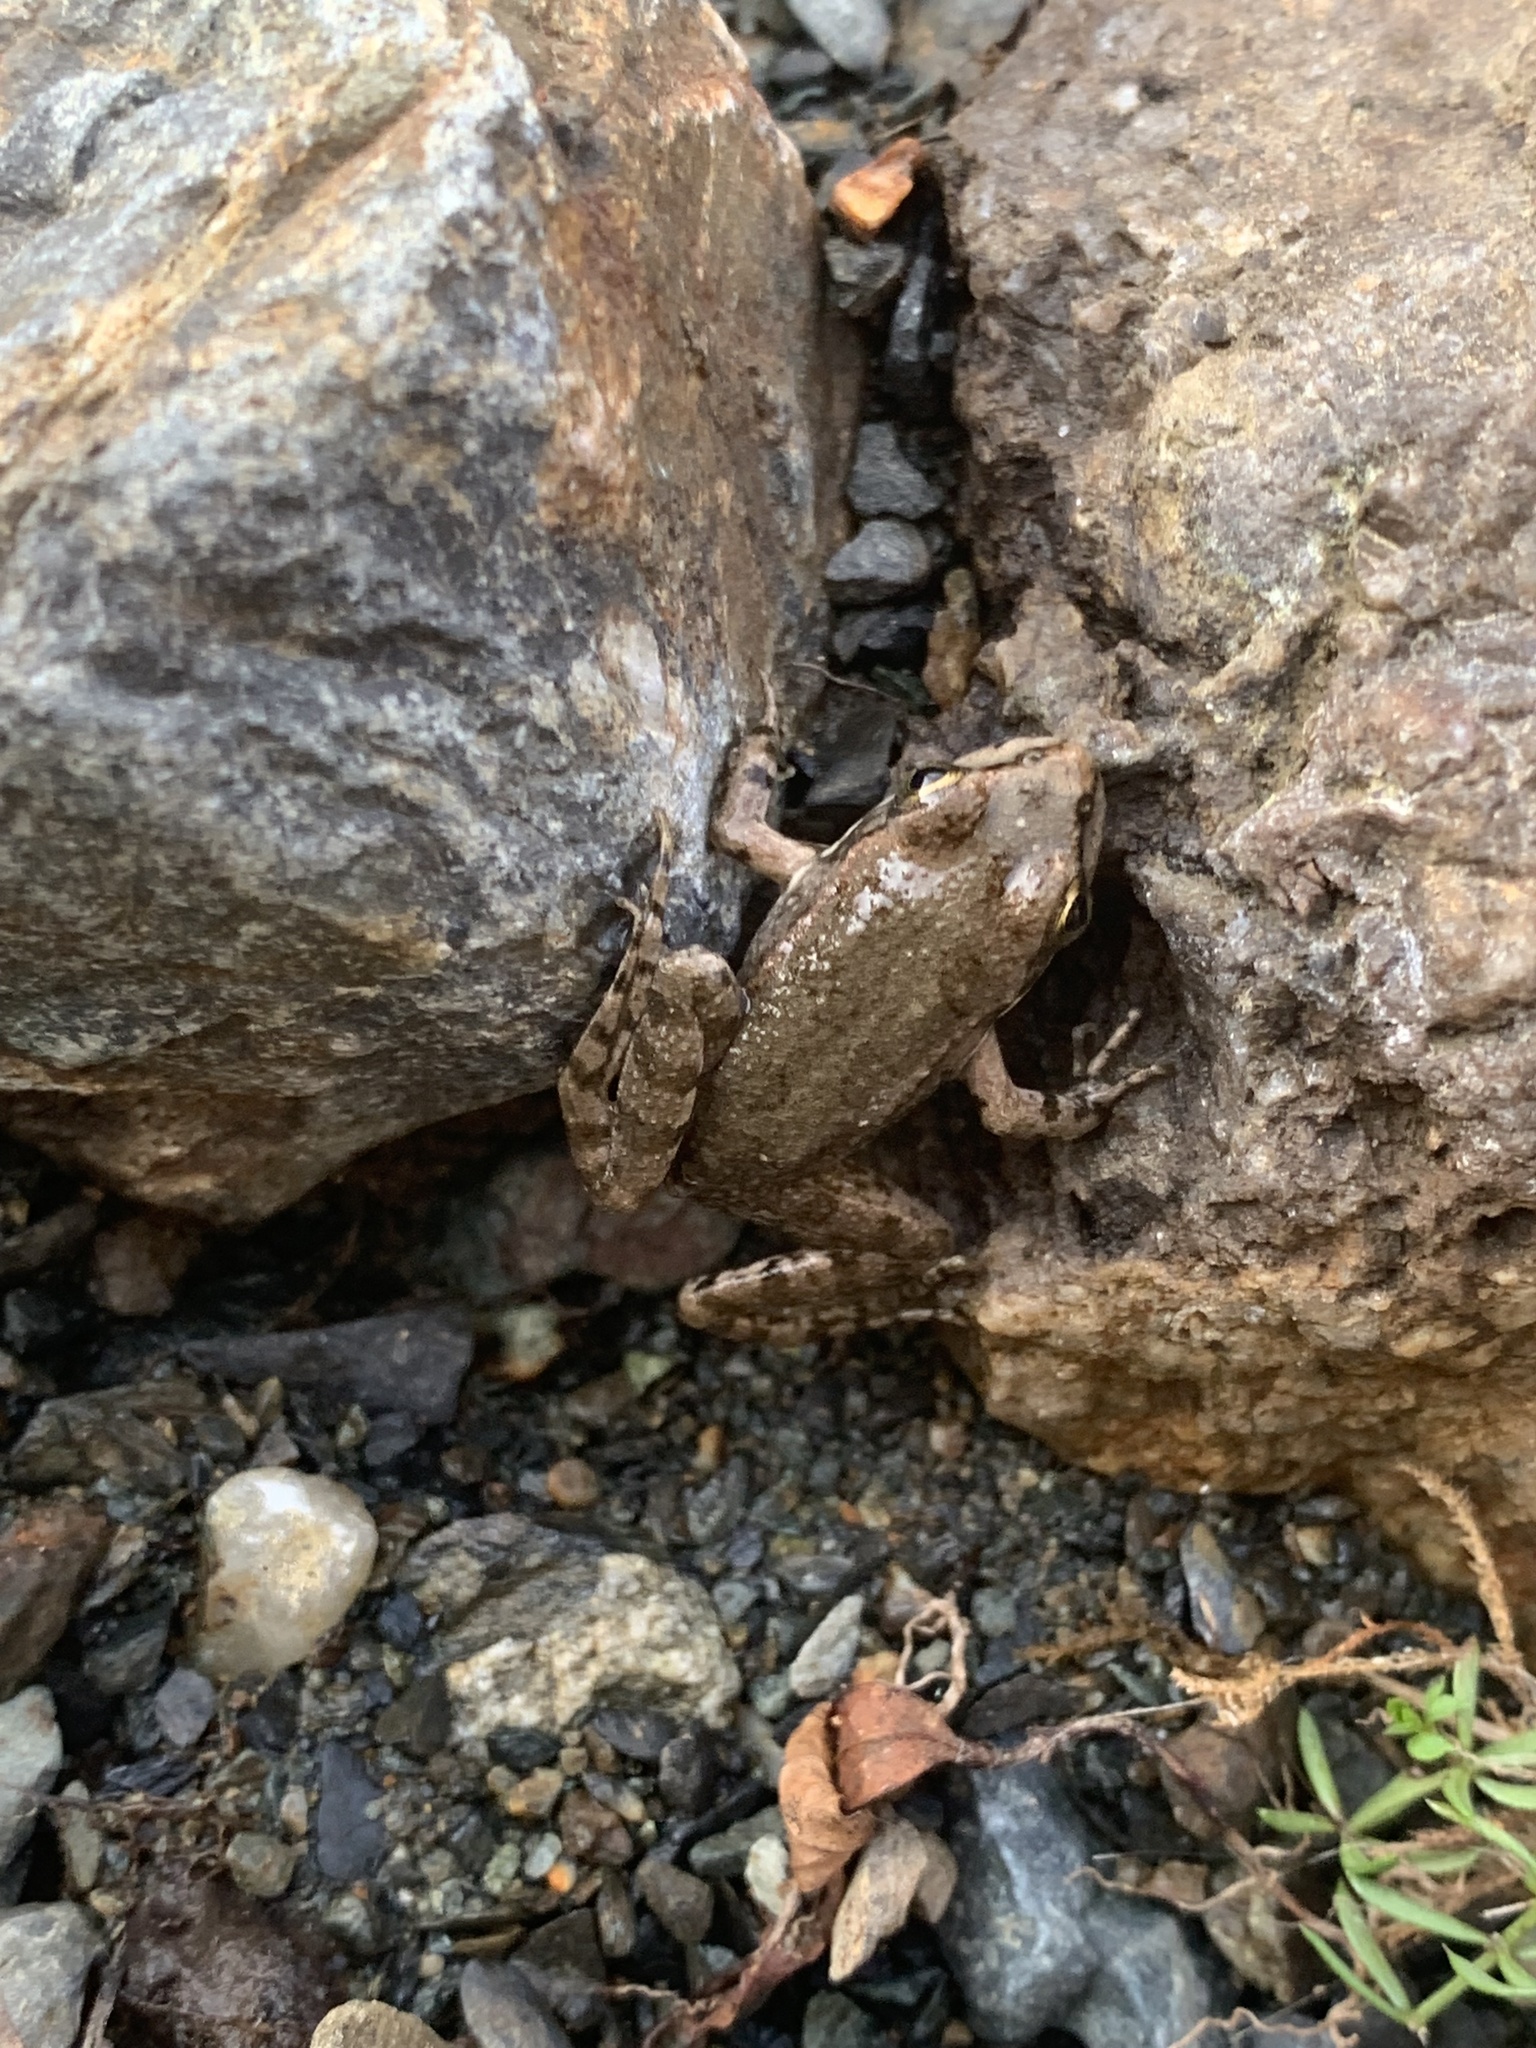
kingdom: Animalia
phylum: Chordata
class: Amphibia
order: Anura
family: Ranidae
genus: Pelophylax
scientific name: Pelophylax ridibundus
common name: Marsh frog
